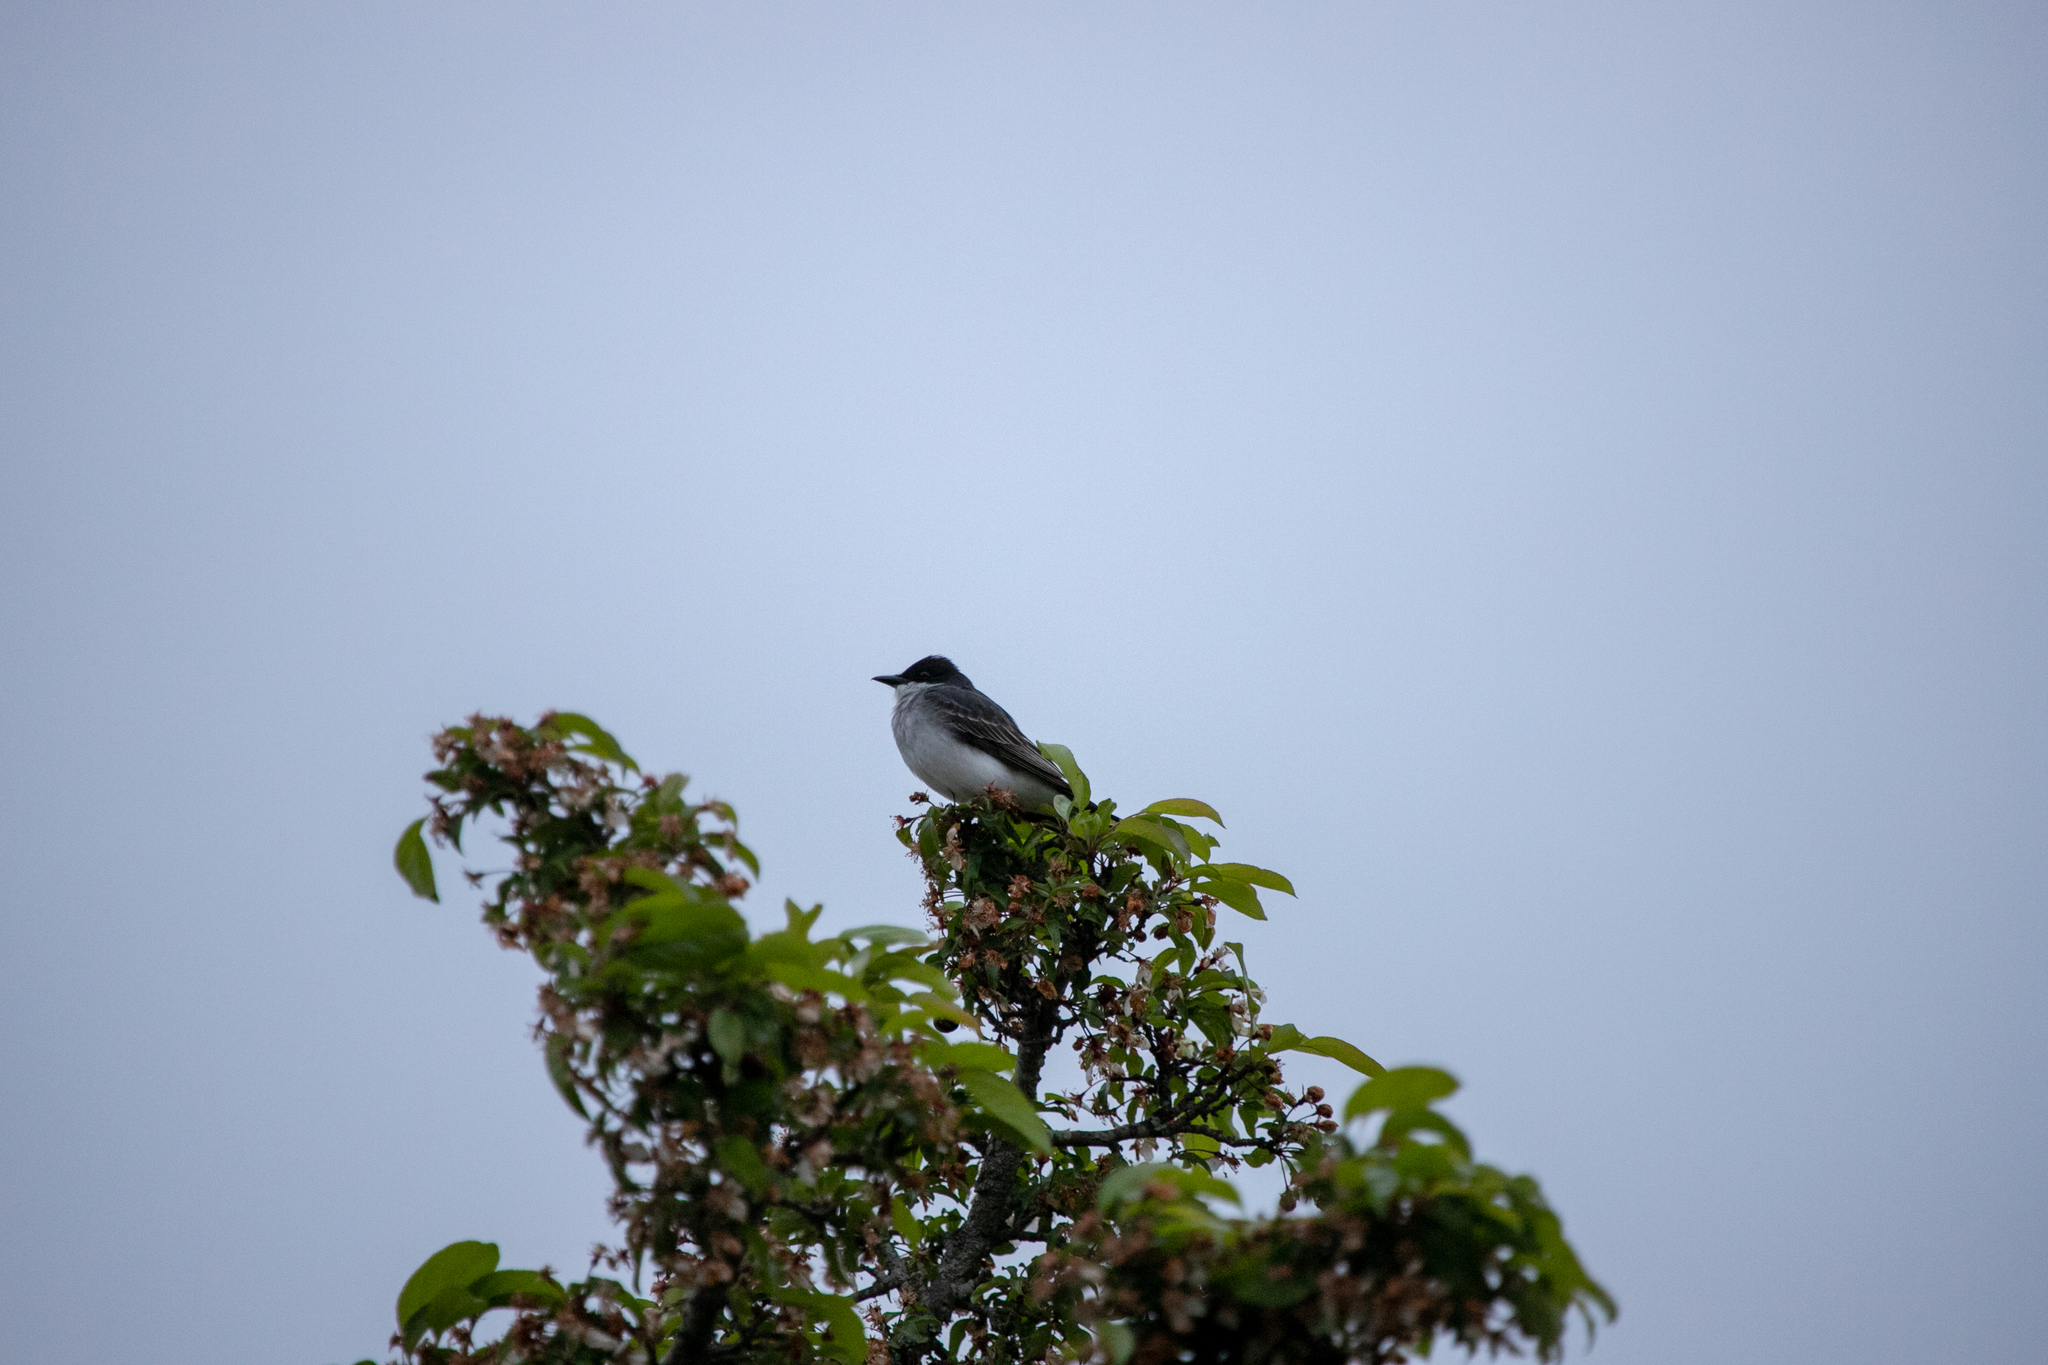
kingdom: Animalia
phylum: Chordata
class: Aves
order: Passeriformes
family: Tyrannidae
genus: Tyrannus
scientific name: Tyrannus tyrannus
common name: Eastern kingbird
